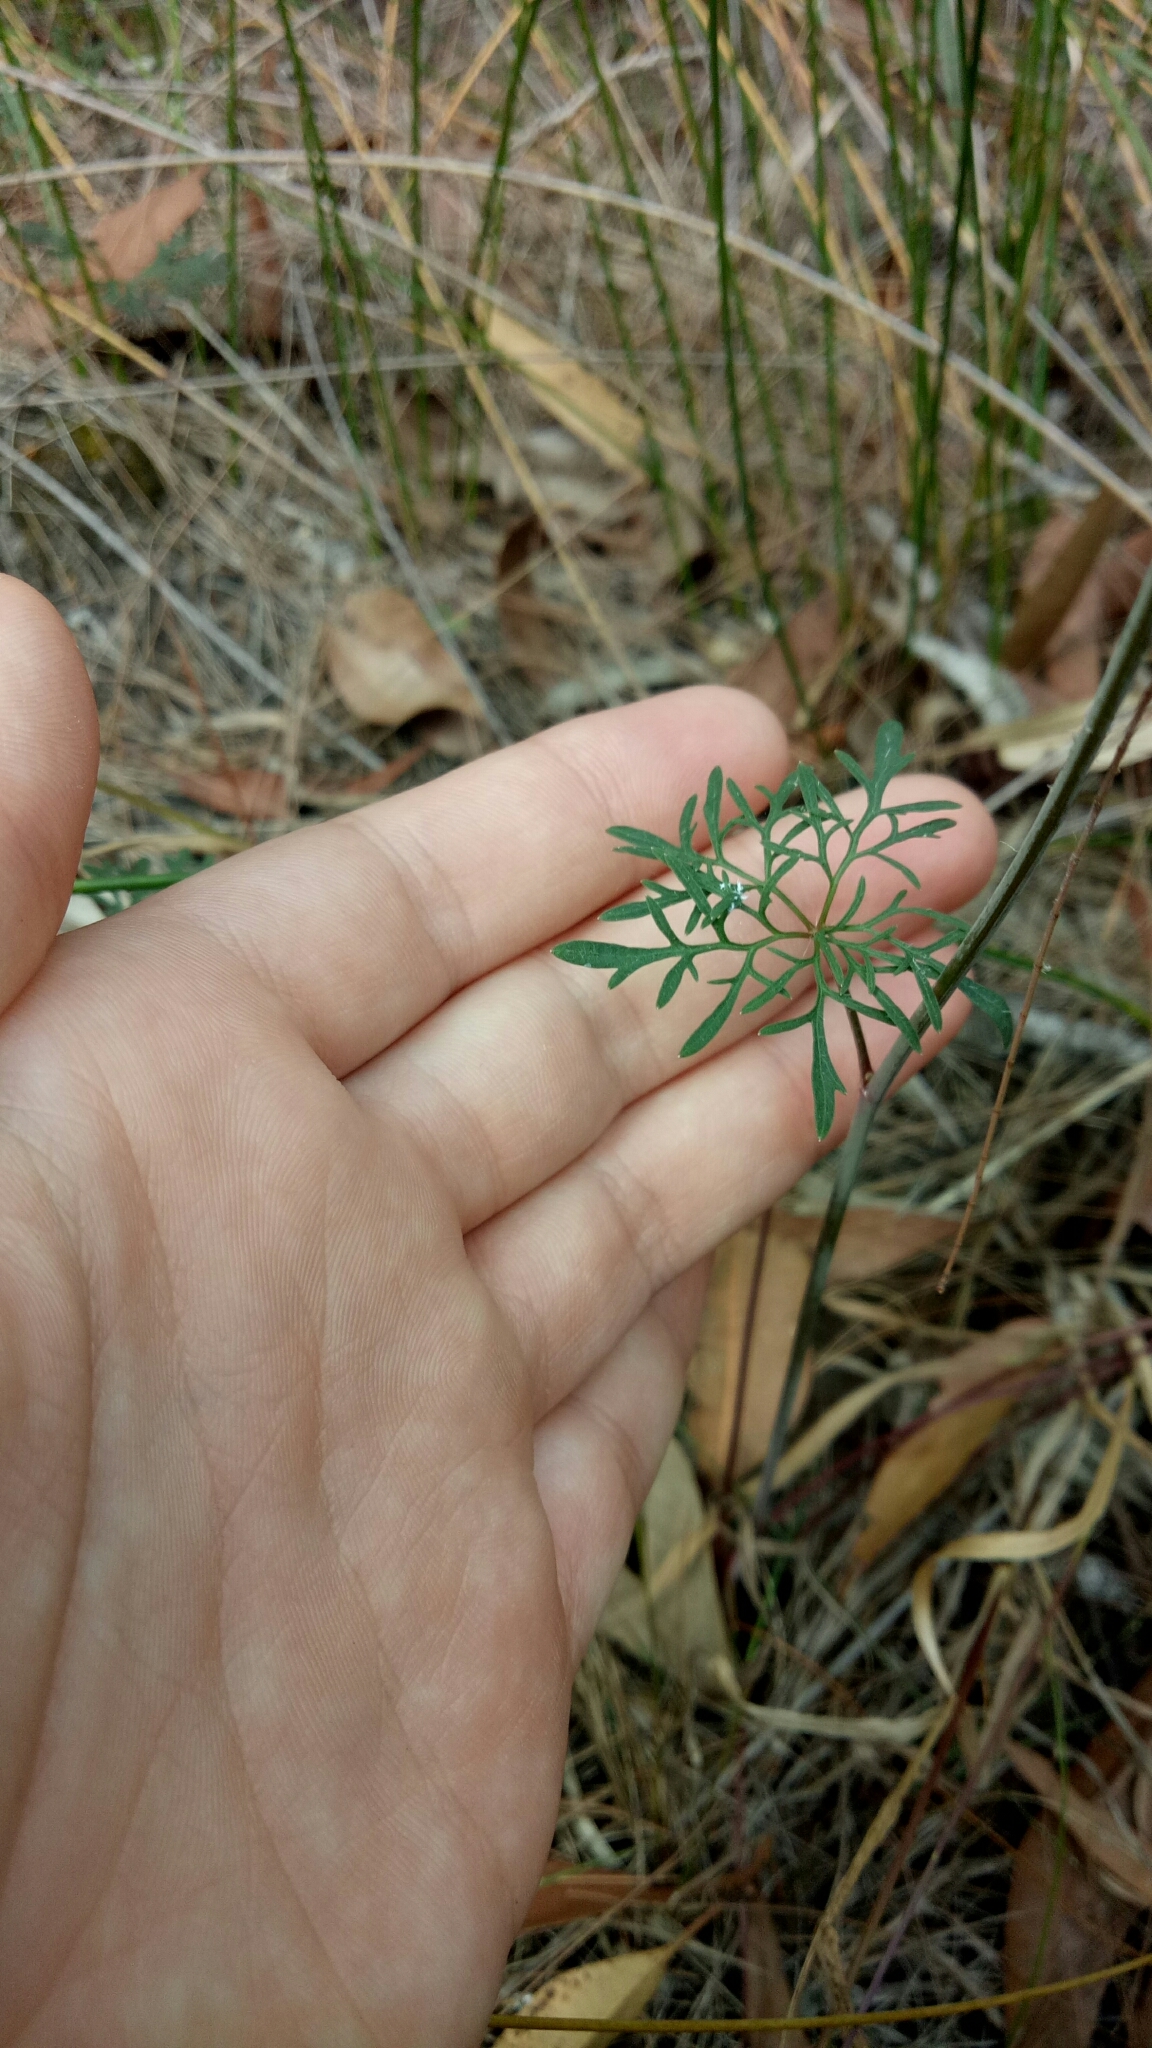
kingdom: Plantae
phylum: Tracheophyta
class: Magnoliopsida
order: Apiales
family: Araliaceae
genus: Trachymene
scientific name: Trachymene incisa
